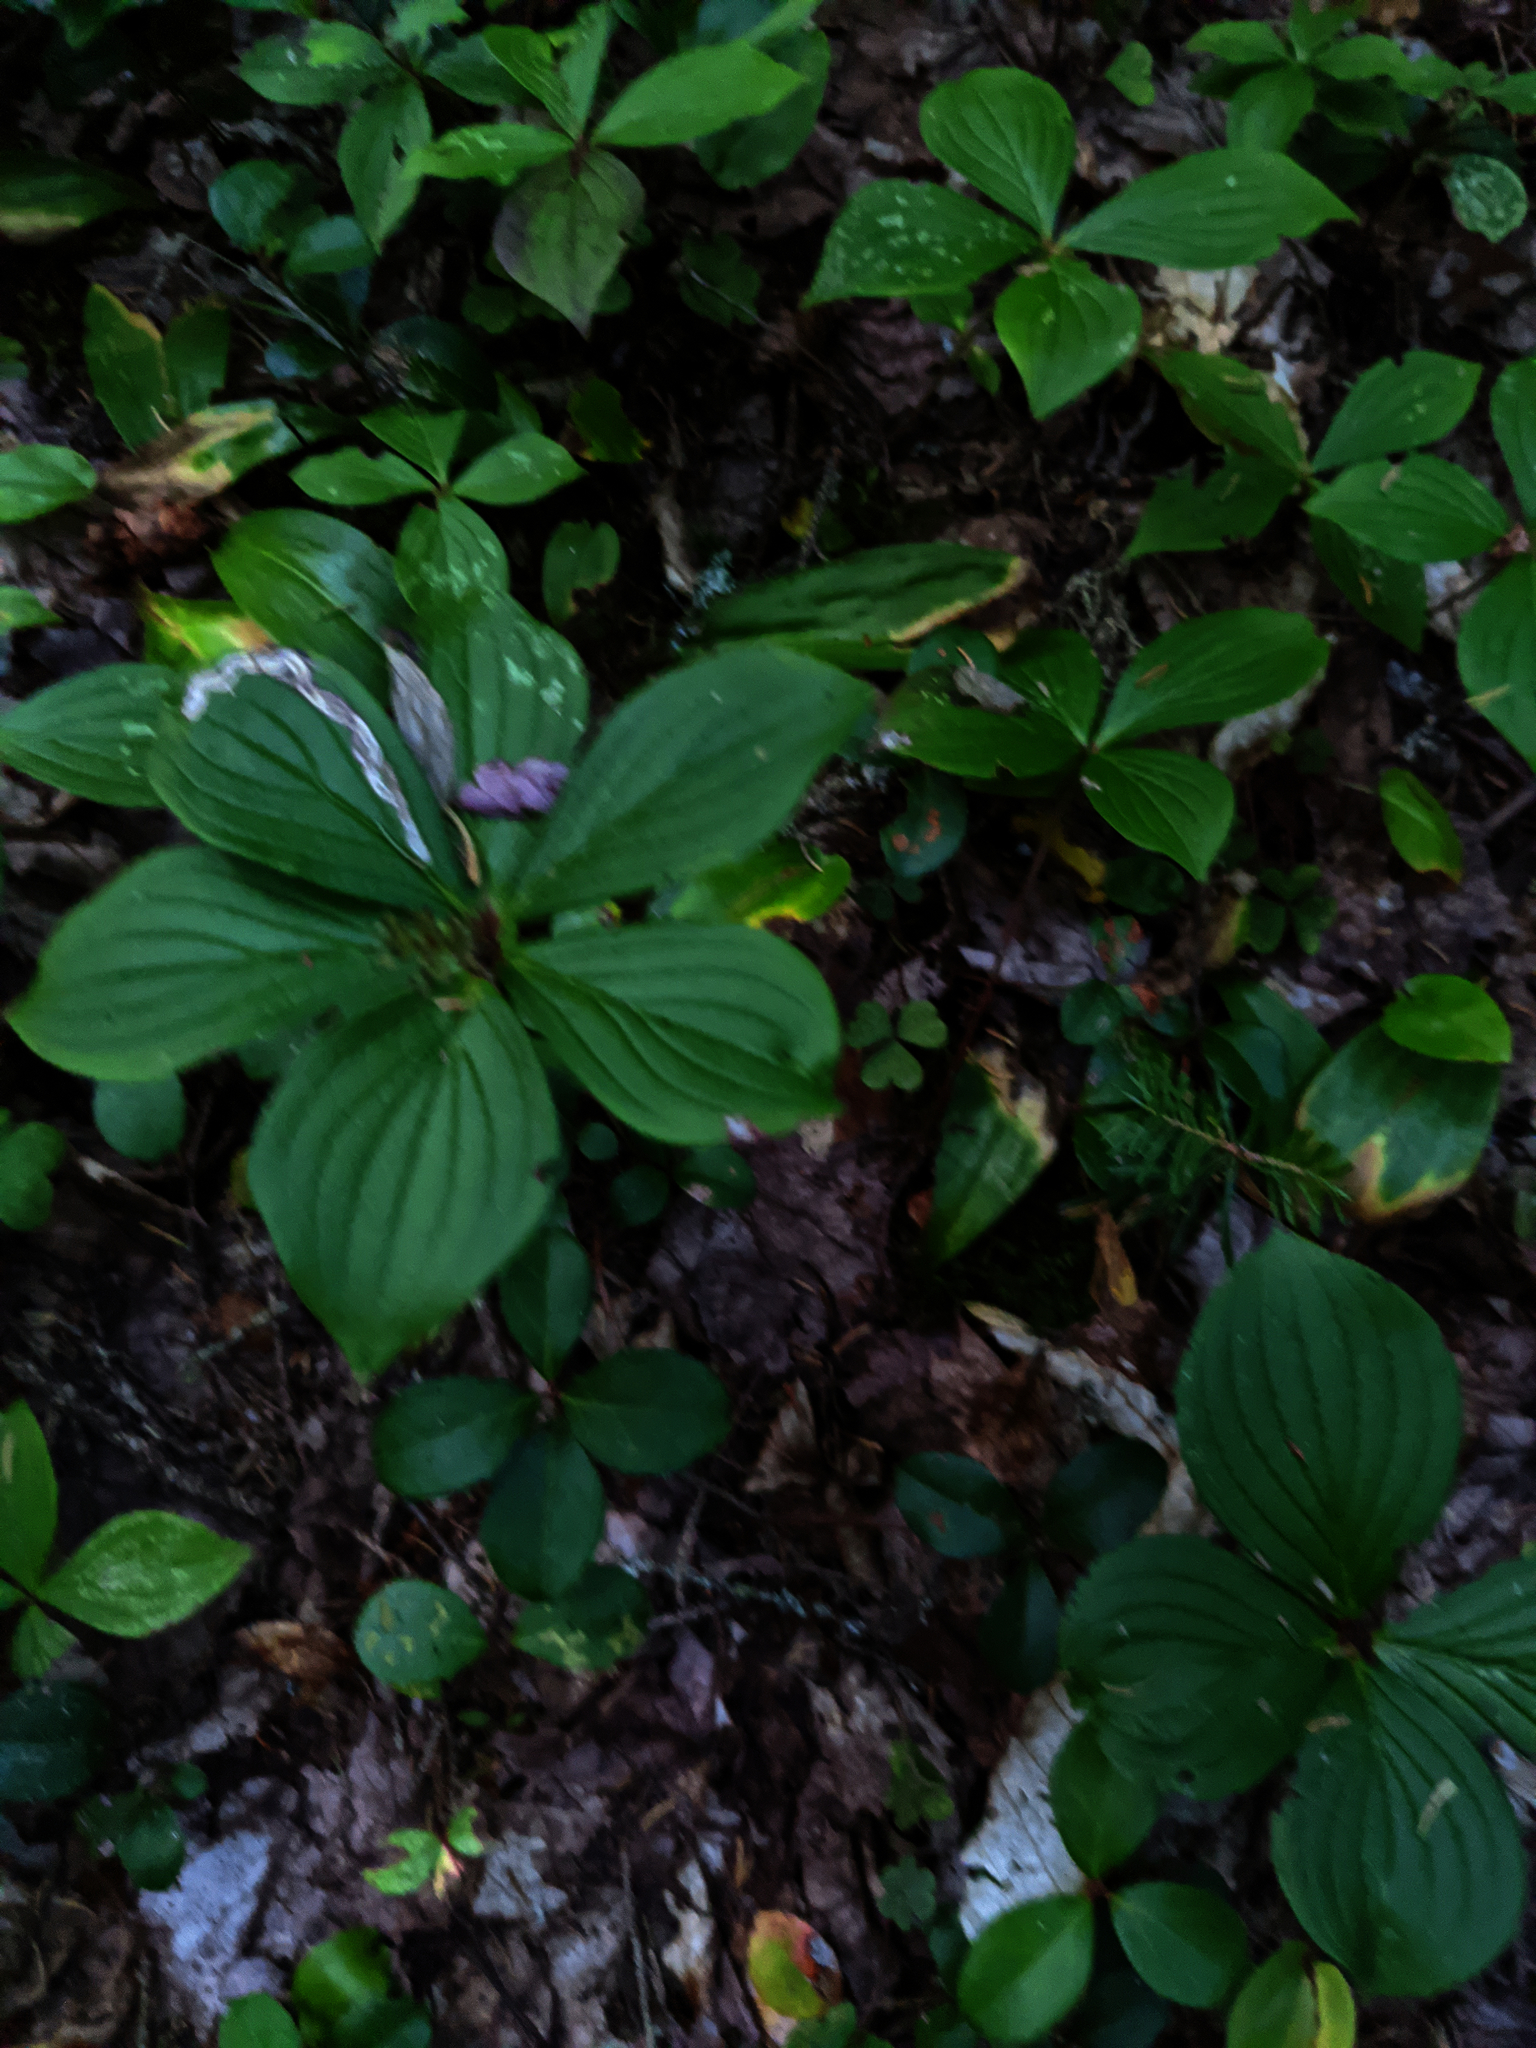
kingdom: Plantae
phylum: Tracheophyta
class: Magnoliopsida
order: Cornales
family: Cornaceae
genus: Cornus
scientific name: Cornus canadensis
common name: Creeping dogwood
